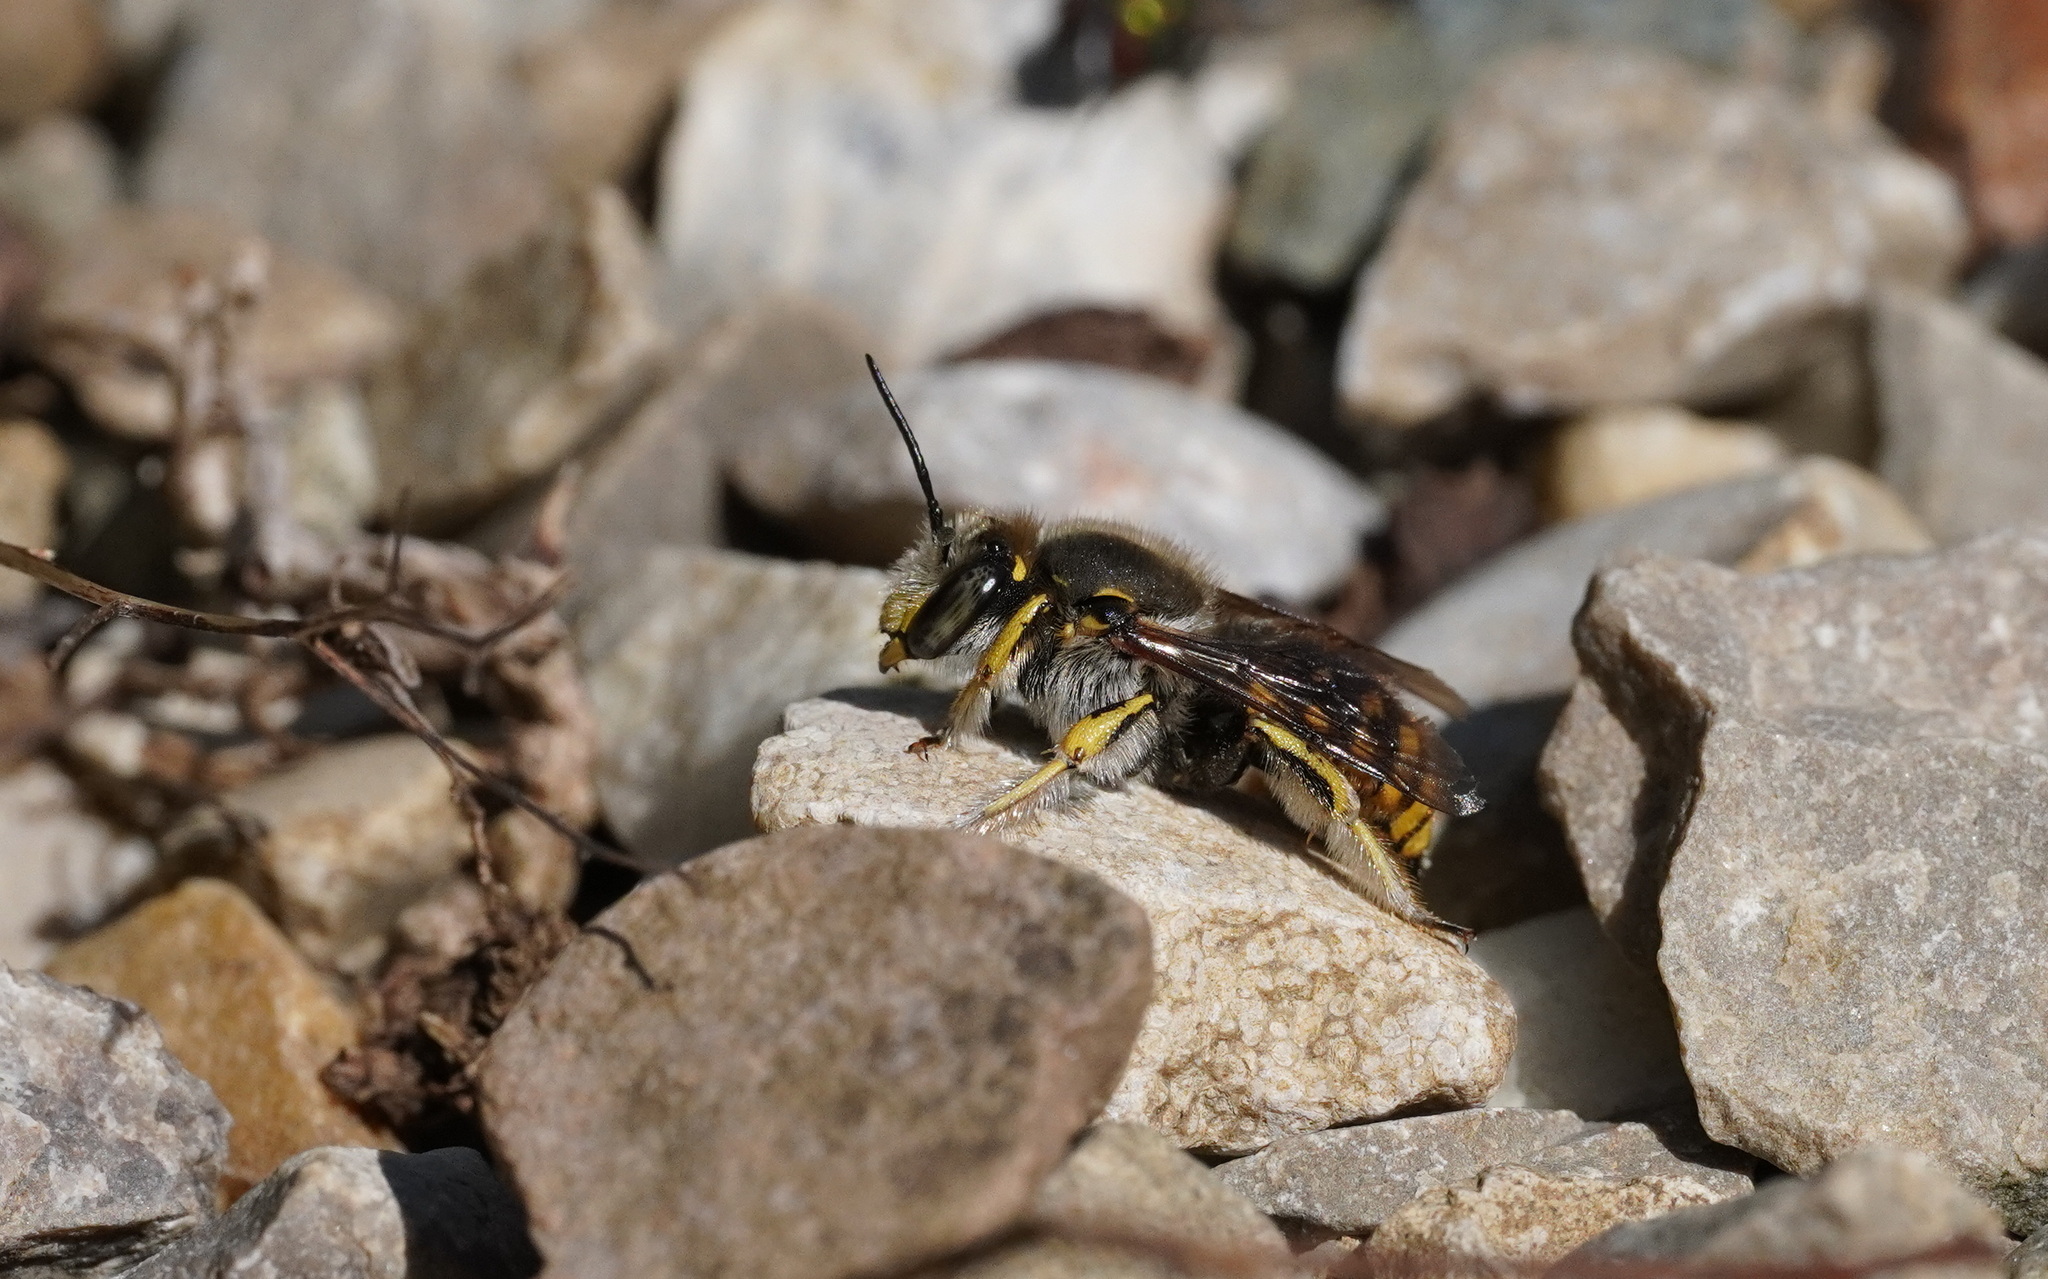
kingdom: Animalia
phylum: Arthropoda
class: Insecta
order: Hymenoptera
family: Megachilidae
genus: Anthidium
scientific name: Anthidium manicatum
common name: Wool carder bee
